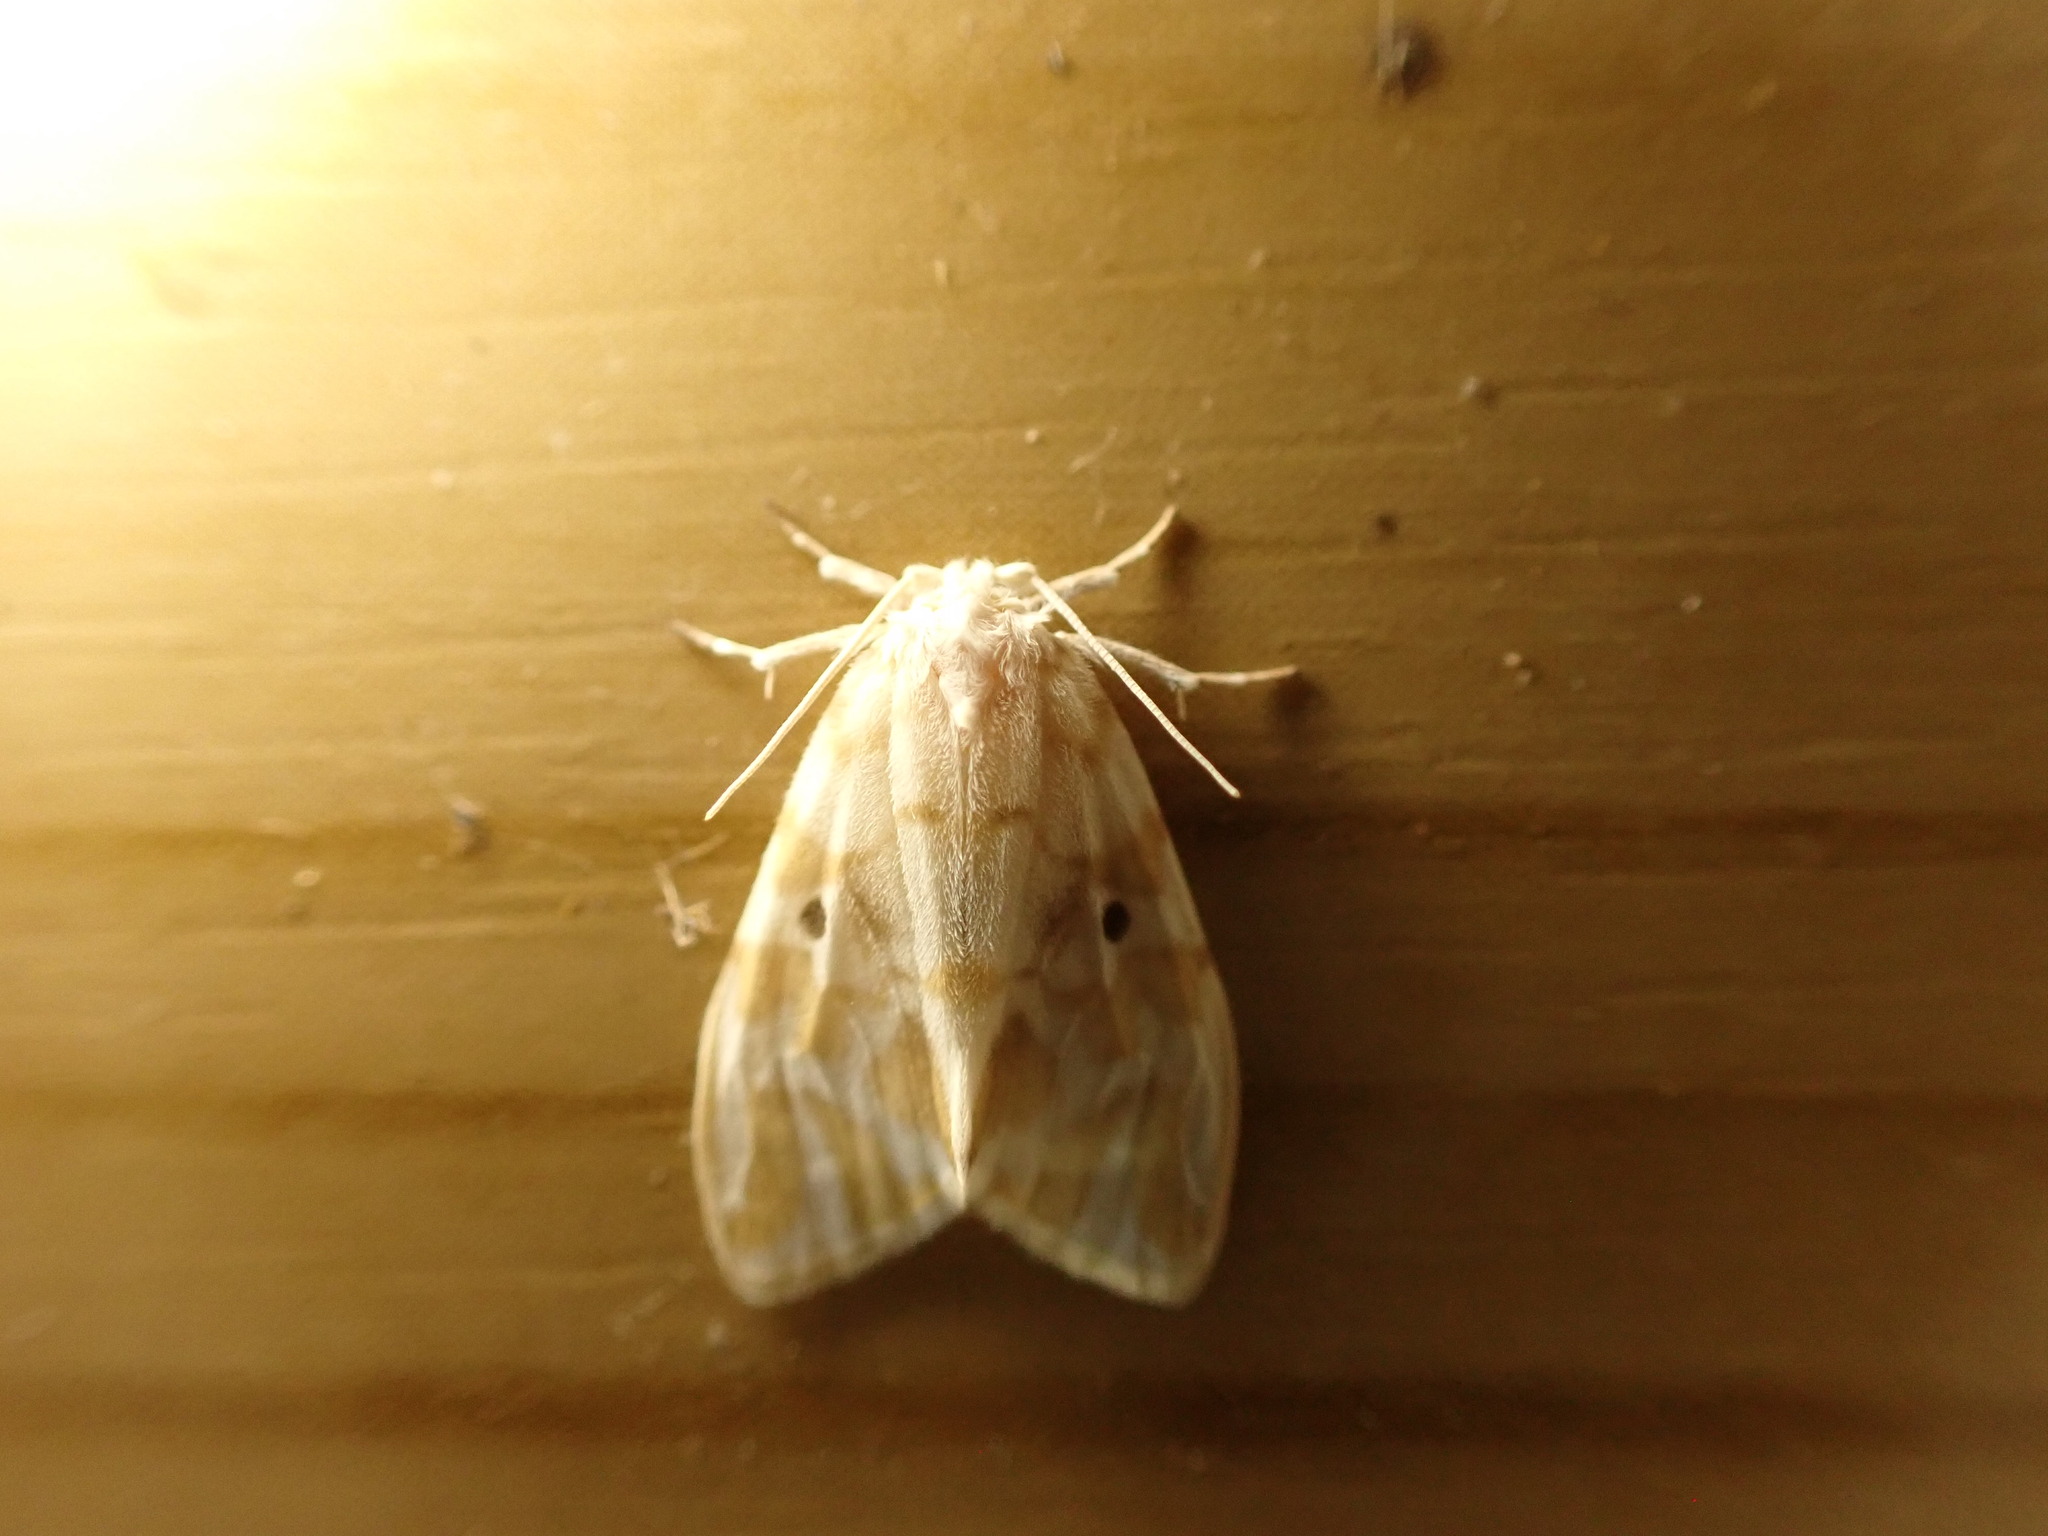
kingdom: Animalia
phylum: Arthropoda
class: Insecta
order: Lepidoptera
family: Erebidae
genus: Nudaria
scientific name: Nudaria ranruna
